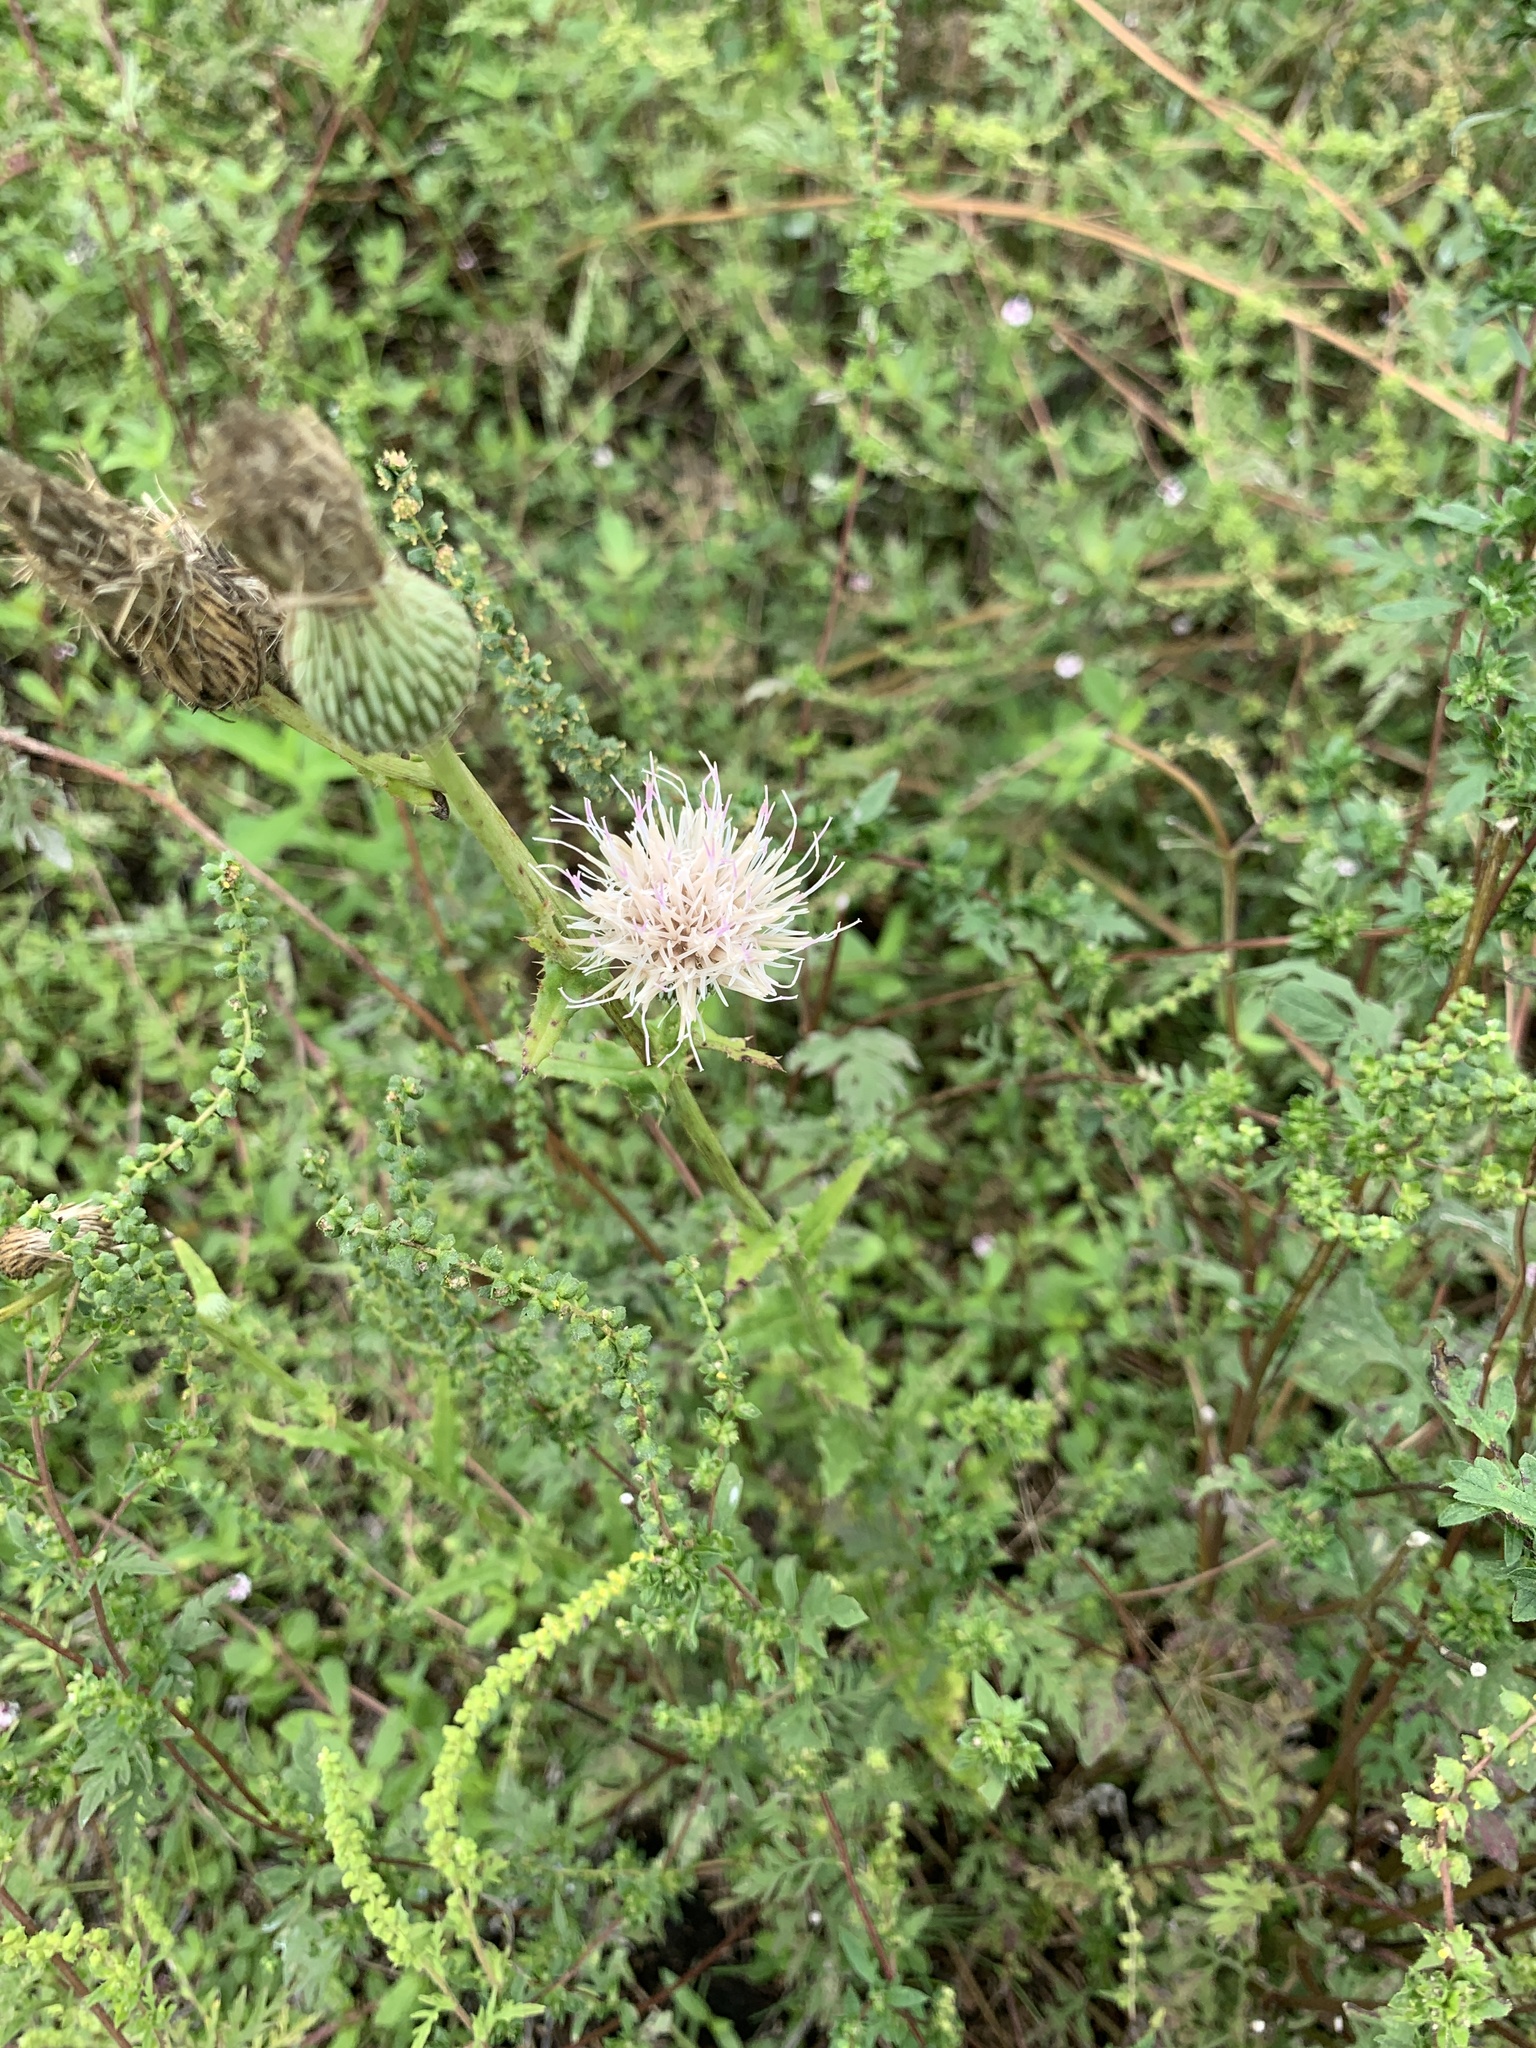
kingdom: Plantae
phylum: Tracheophyta
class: Magnoliopsida
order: Asterales
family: Asteraceae
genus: Cirsium
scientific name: Cirsium nuttalii
